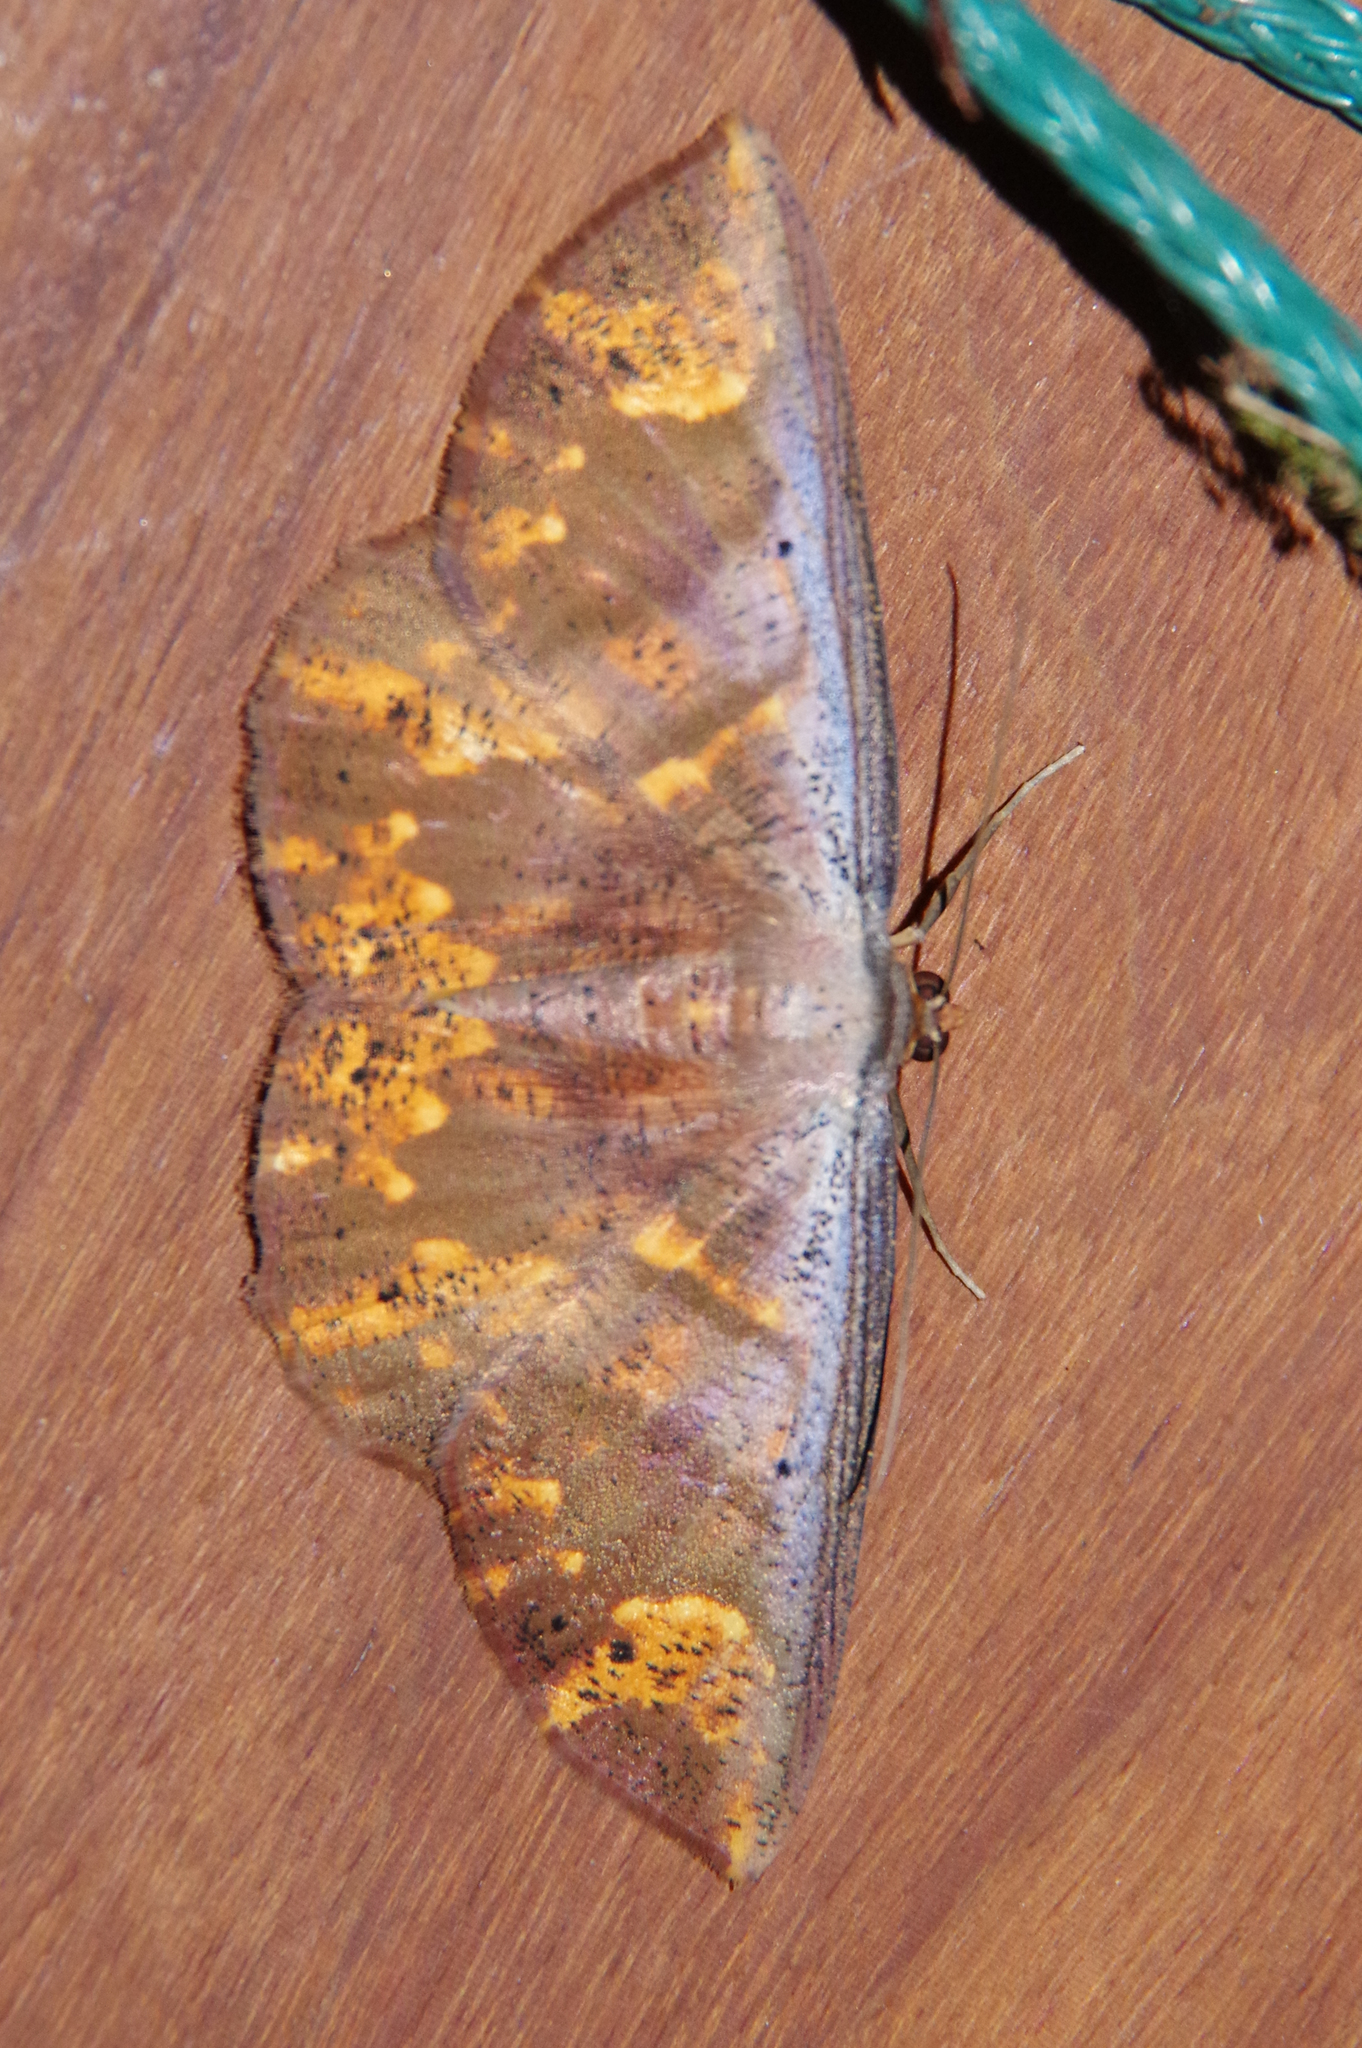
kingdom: Animalia
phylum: Arthropoda
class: Insecta
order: Lepidoptera
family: Geometridae
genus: Oenoptila
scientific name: Oenoptila violacearia
